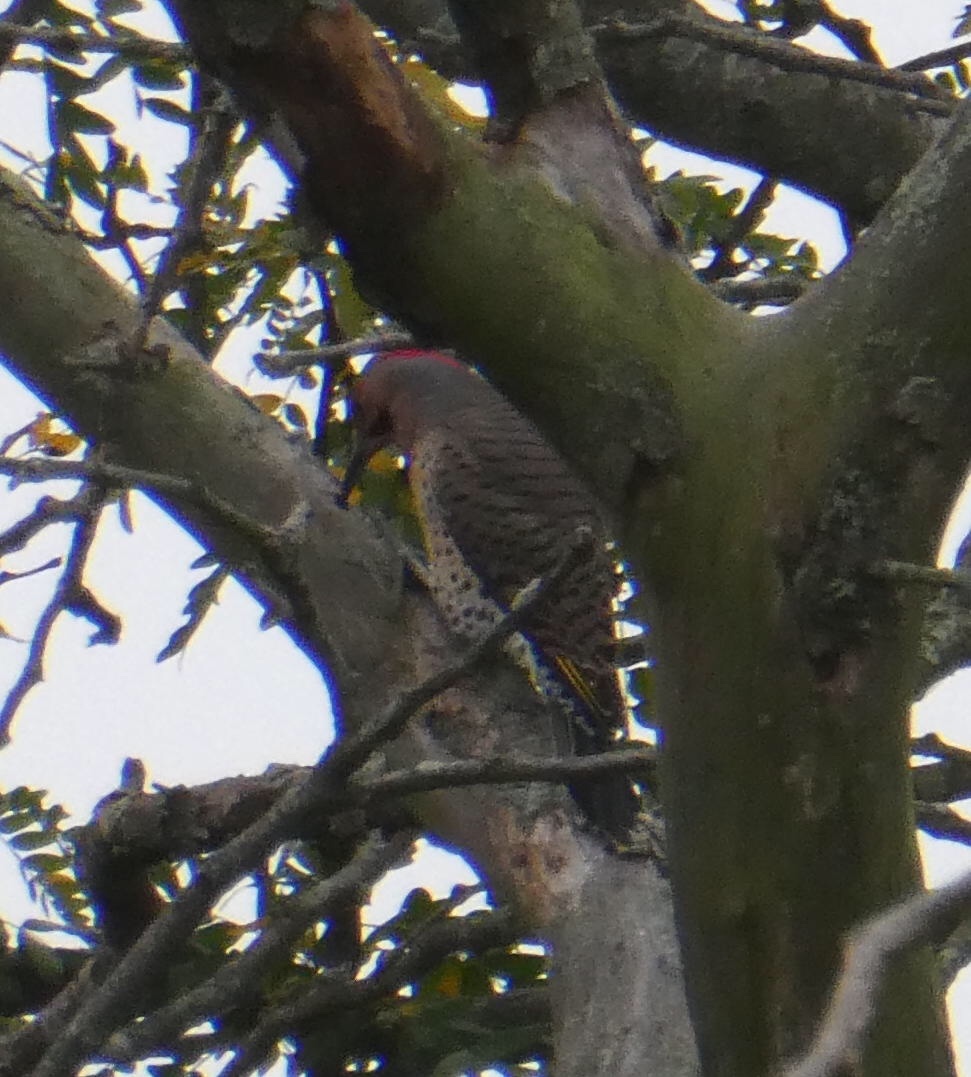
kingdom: Animalia
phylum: Chordata
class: Aves
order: Piciformes
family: Picidae
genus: Colaptes
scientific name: Colaptes auratus
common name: Northern flicker
